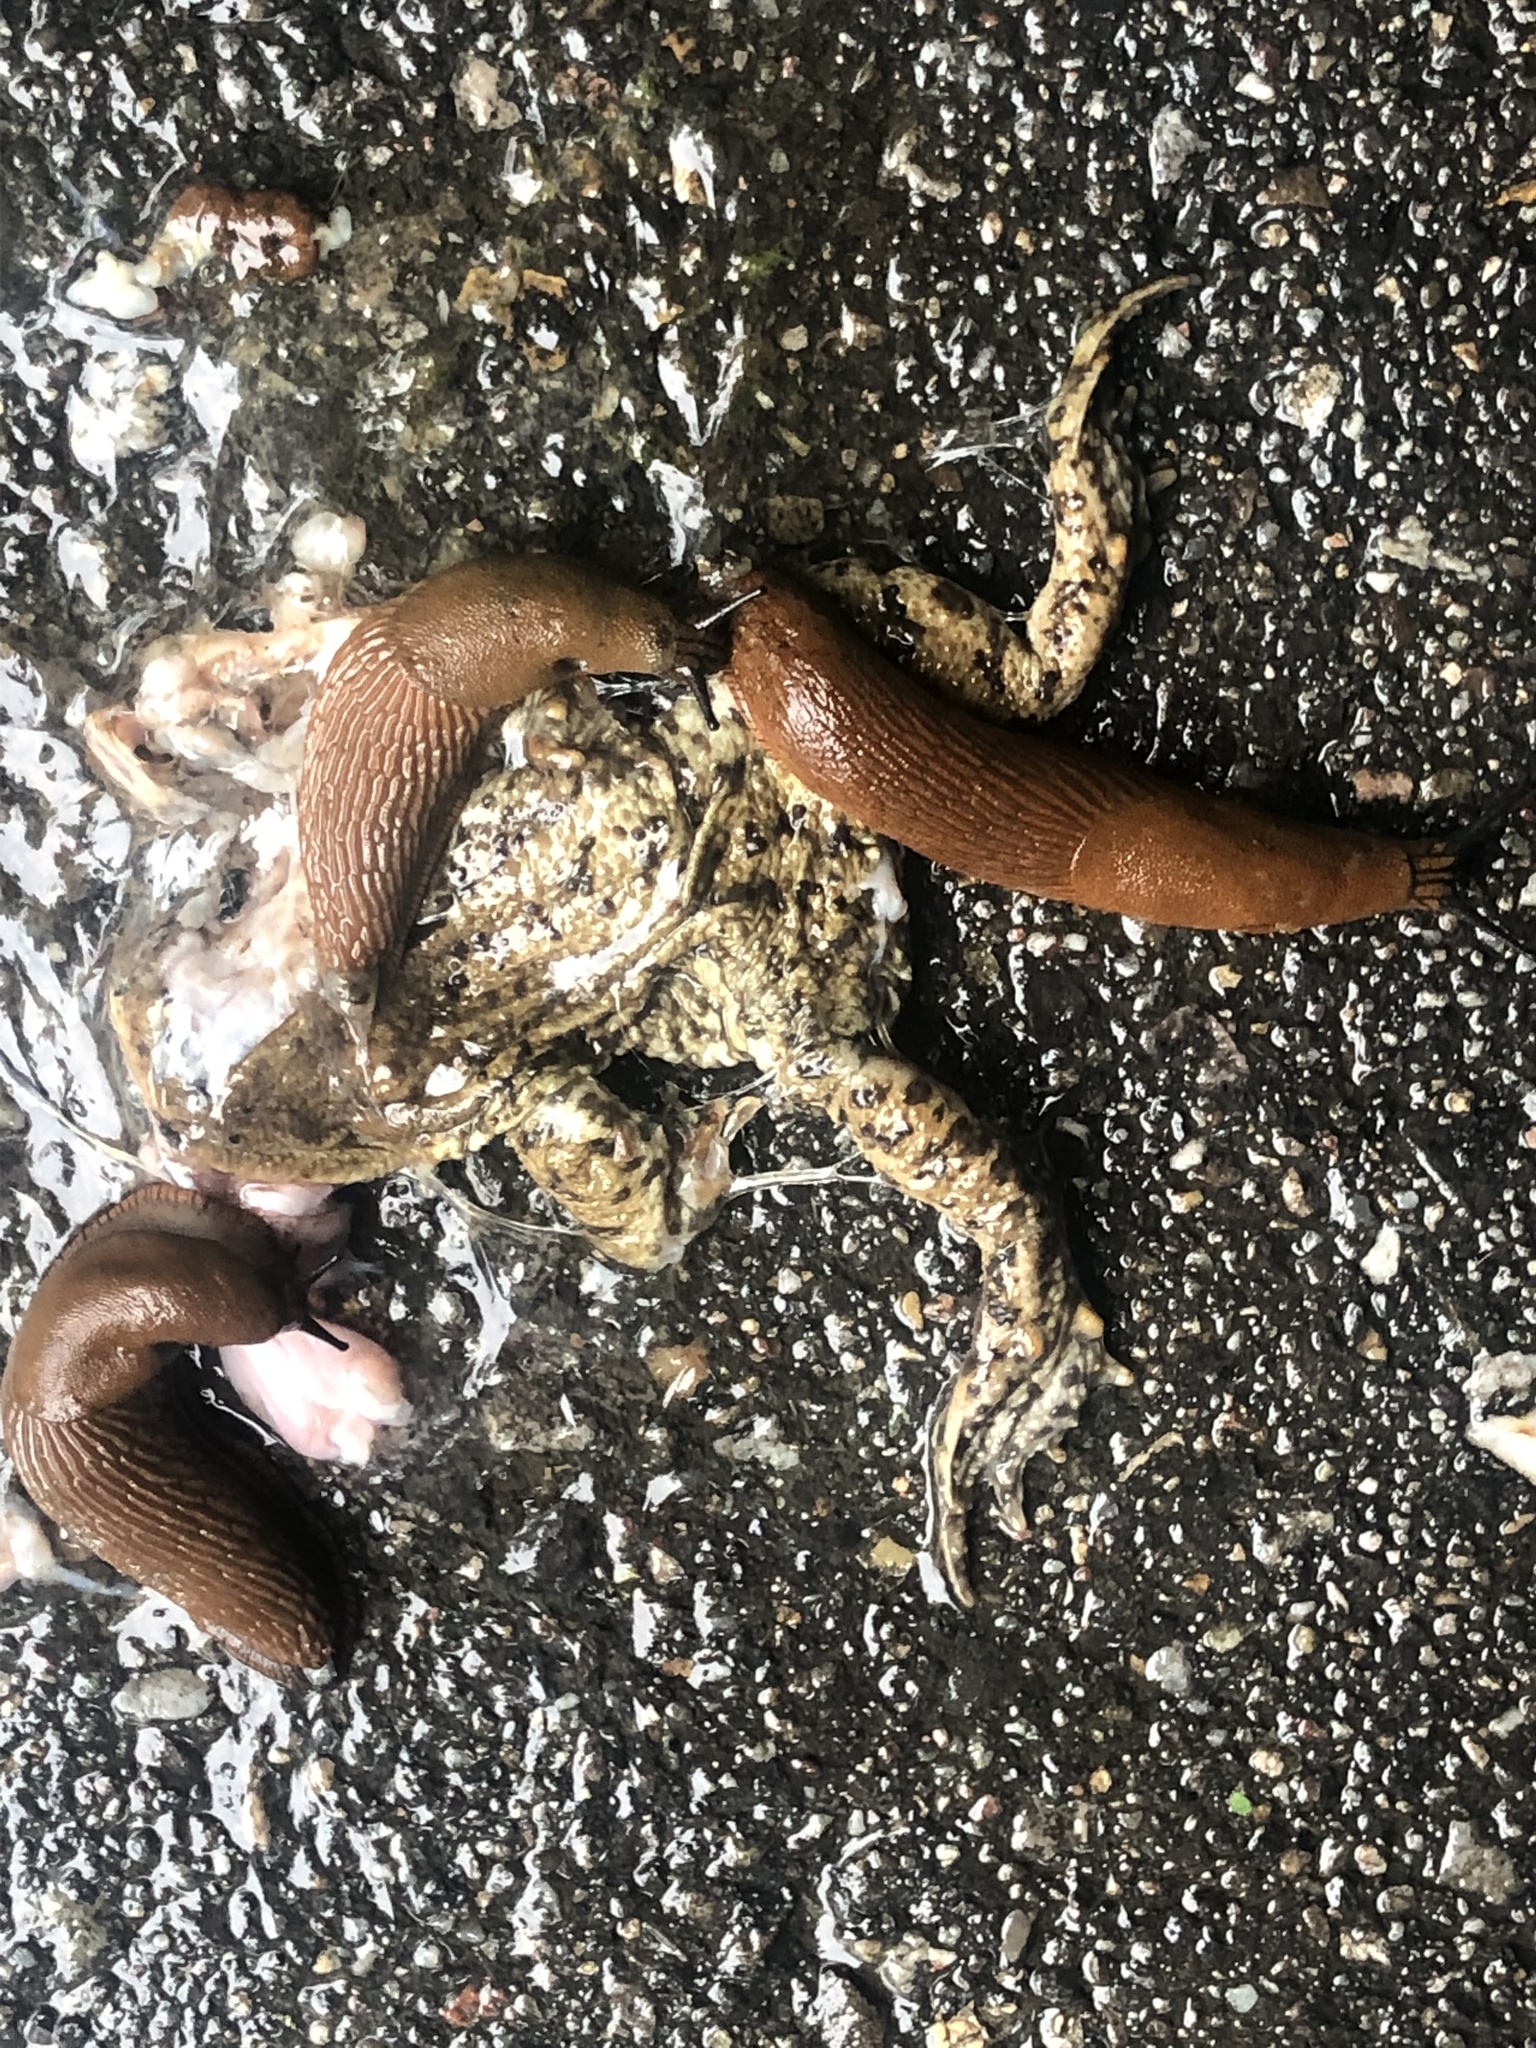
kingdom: Animalia
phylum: Chordata
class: Amphibia
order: Anura
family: Bufonidae
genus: Bufo
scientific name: Bufo bufo
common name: Common toad
